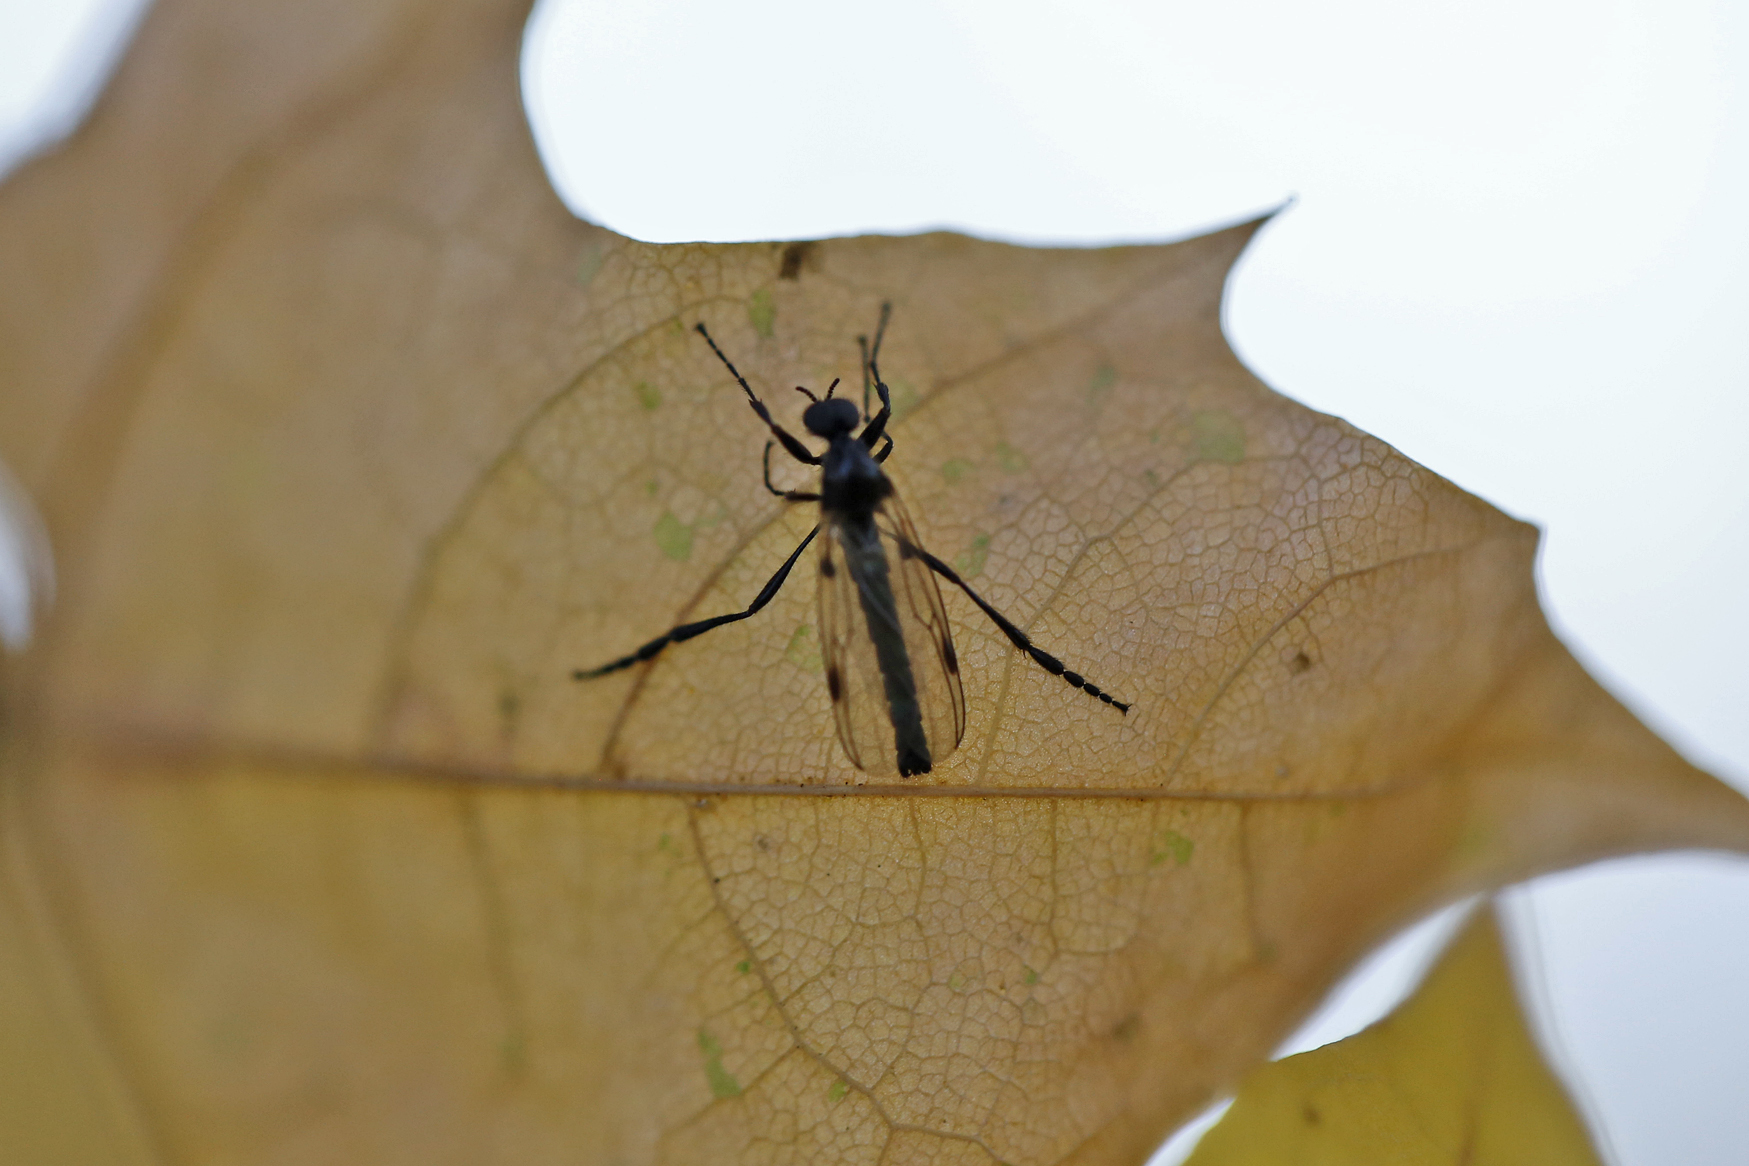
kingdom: Animalia
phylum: Arthropoda
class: Insecta
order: Diptera
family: Bibionidae
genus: Bibio
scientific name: Bibio slossonae
